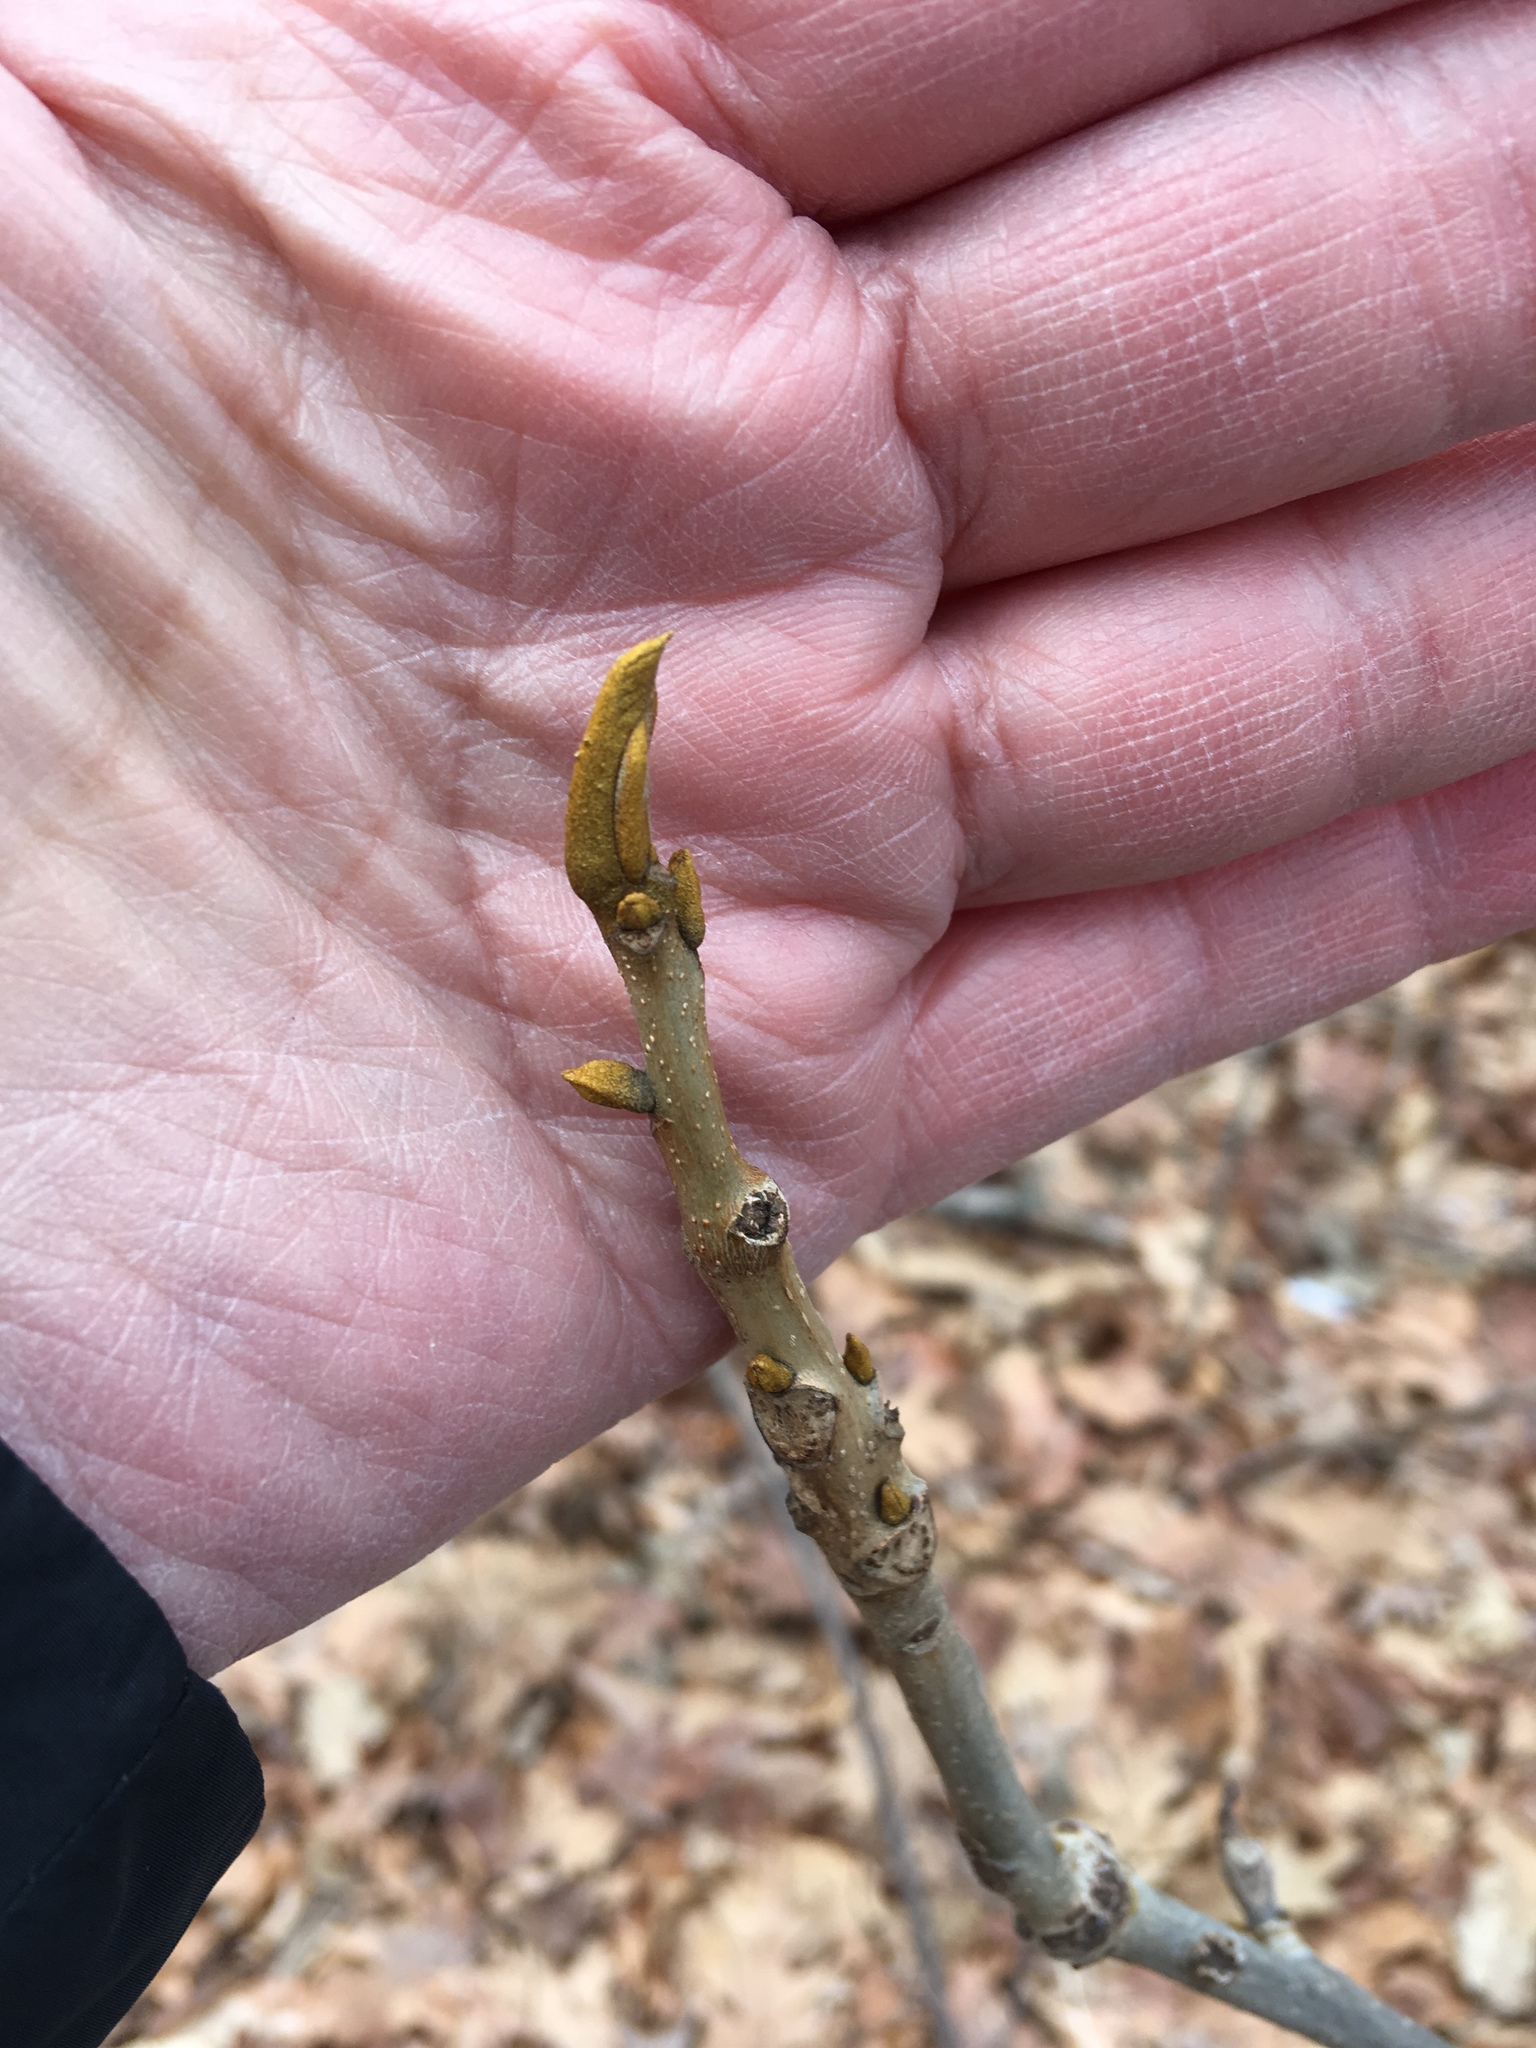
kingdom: Plantae
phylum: Tracheophyta
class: Magnoliopsida
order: Fagales
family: Juglandaceae
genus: Carya
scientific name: Carya cordiformis
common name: Bitternut hickory
